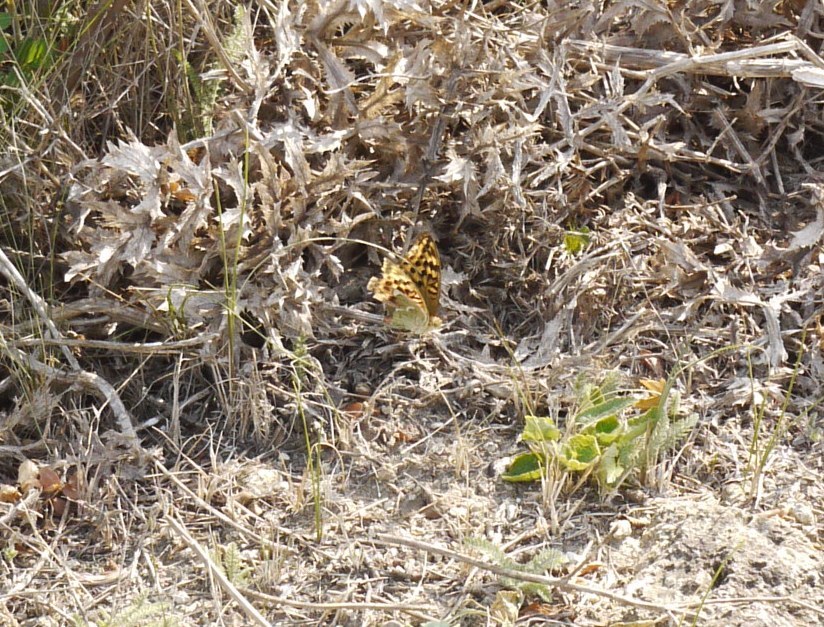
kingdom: Animalia
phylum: Arthropoda
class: Insecta
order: Lepidoptera
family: Nymphalidae
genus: Damora
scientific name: Damora pandora
